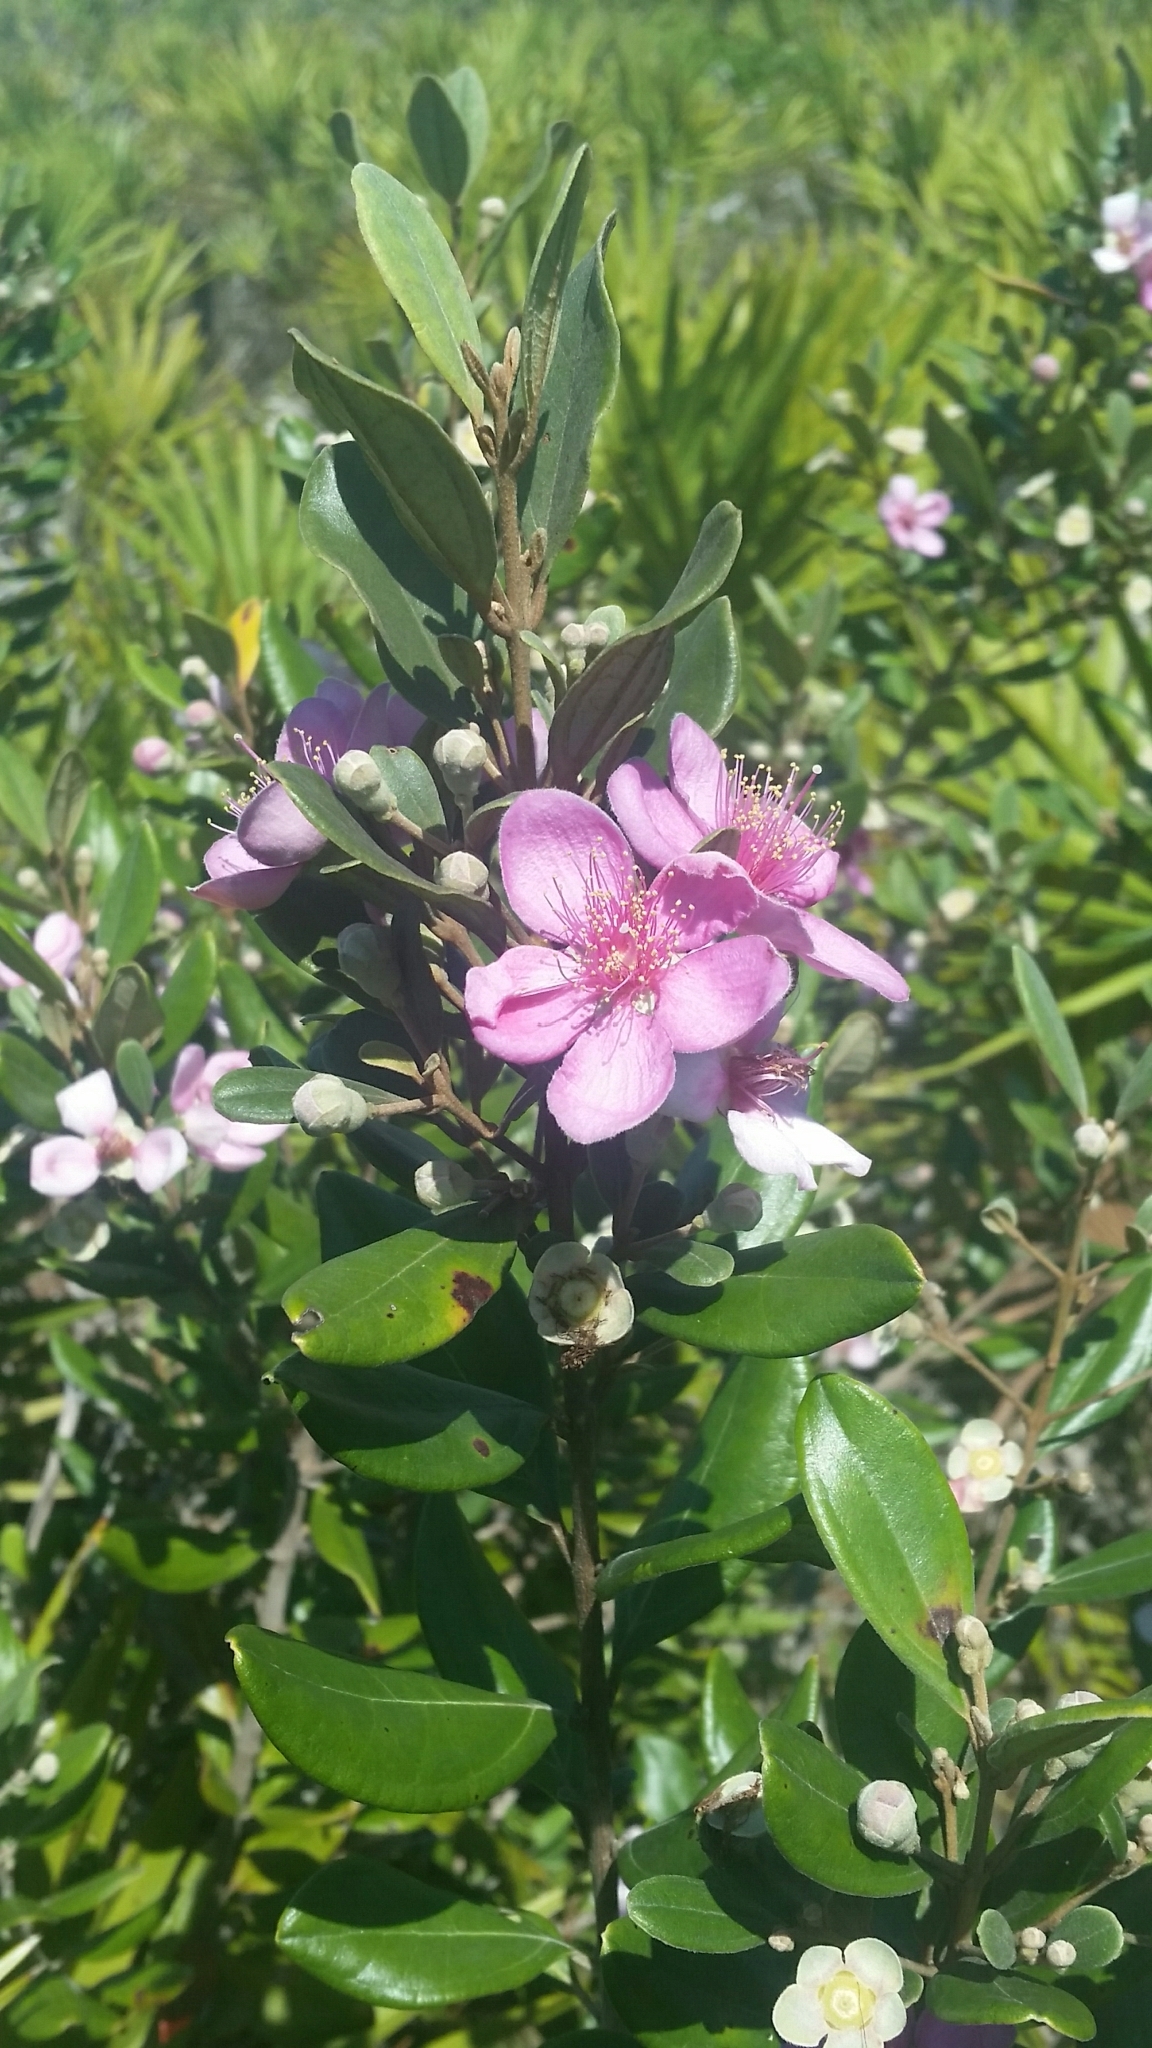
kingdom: Plantae
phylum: Tracheophyta
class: Magnoliopsida
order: Myrtales
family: Myrtaceae
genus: Rhodomyrtus
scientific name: Rhodomyrtus tomentosa
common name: Rose myrtle
